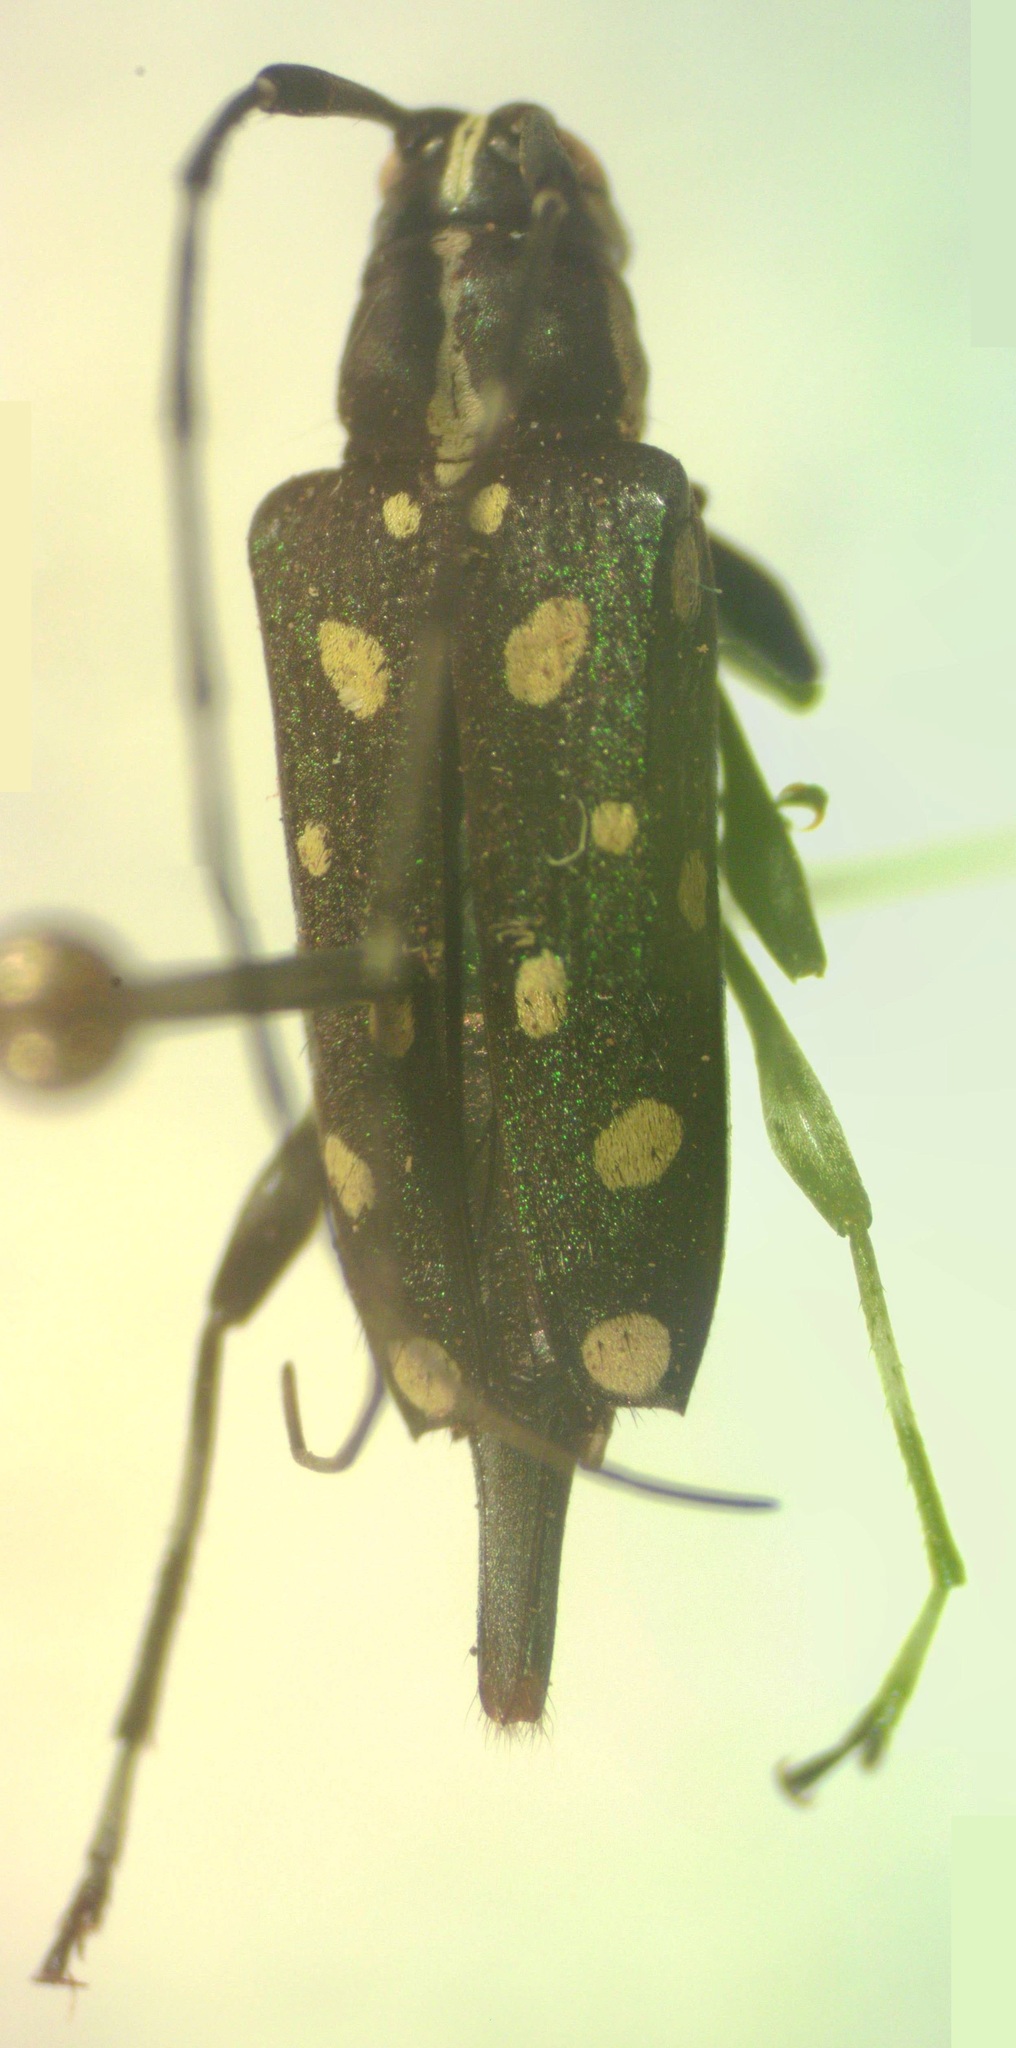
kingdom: Animalia
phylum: Arthropoda
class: Insecta
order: Coleoptera
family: Cerambycidae
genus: Sangaris
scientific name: Sangaris multimaculata
